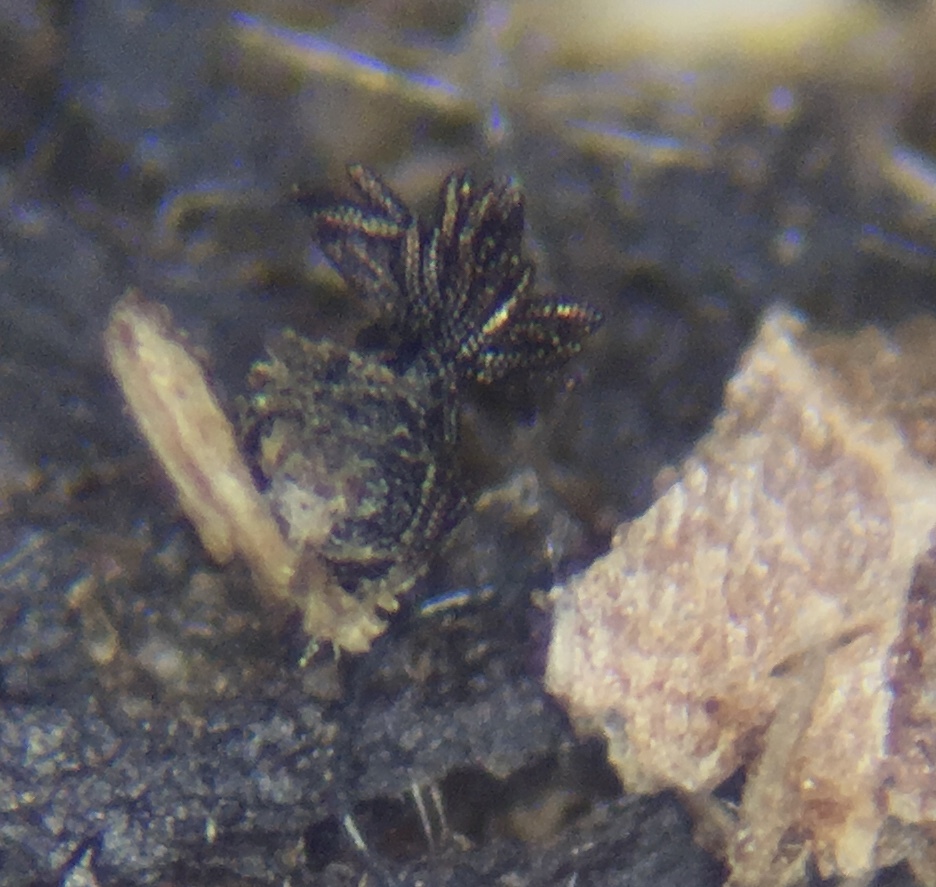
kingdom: Fungi
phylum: Ascomycota
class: Dothideomycetes
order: Pleosporales
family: Sporormiaceae
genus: Sporormia
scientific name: Sporormia subticinensis
